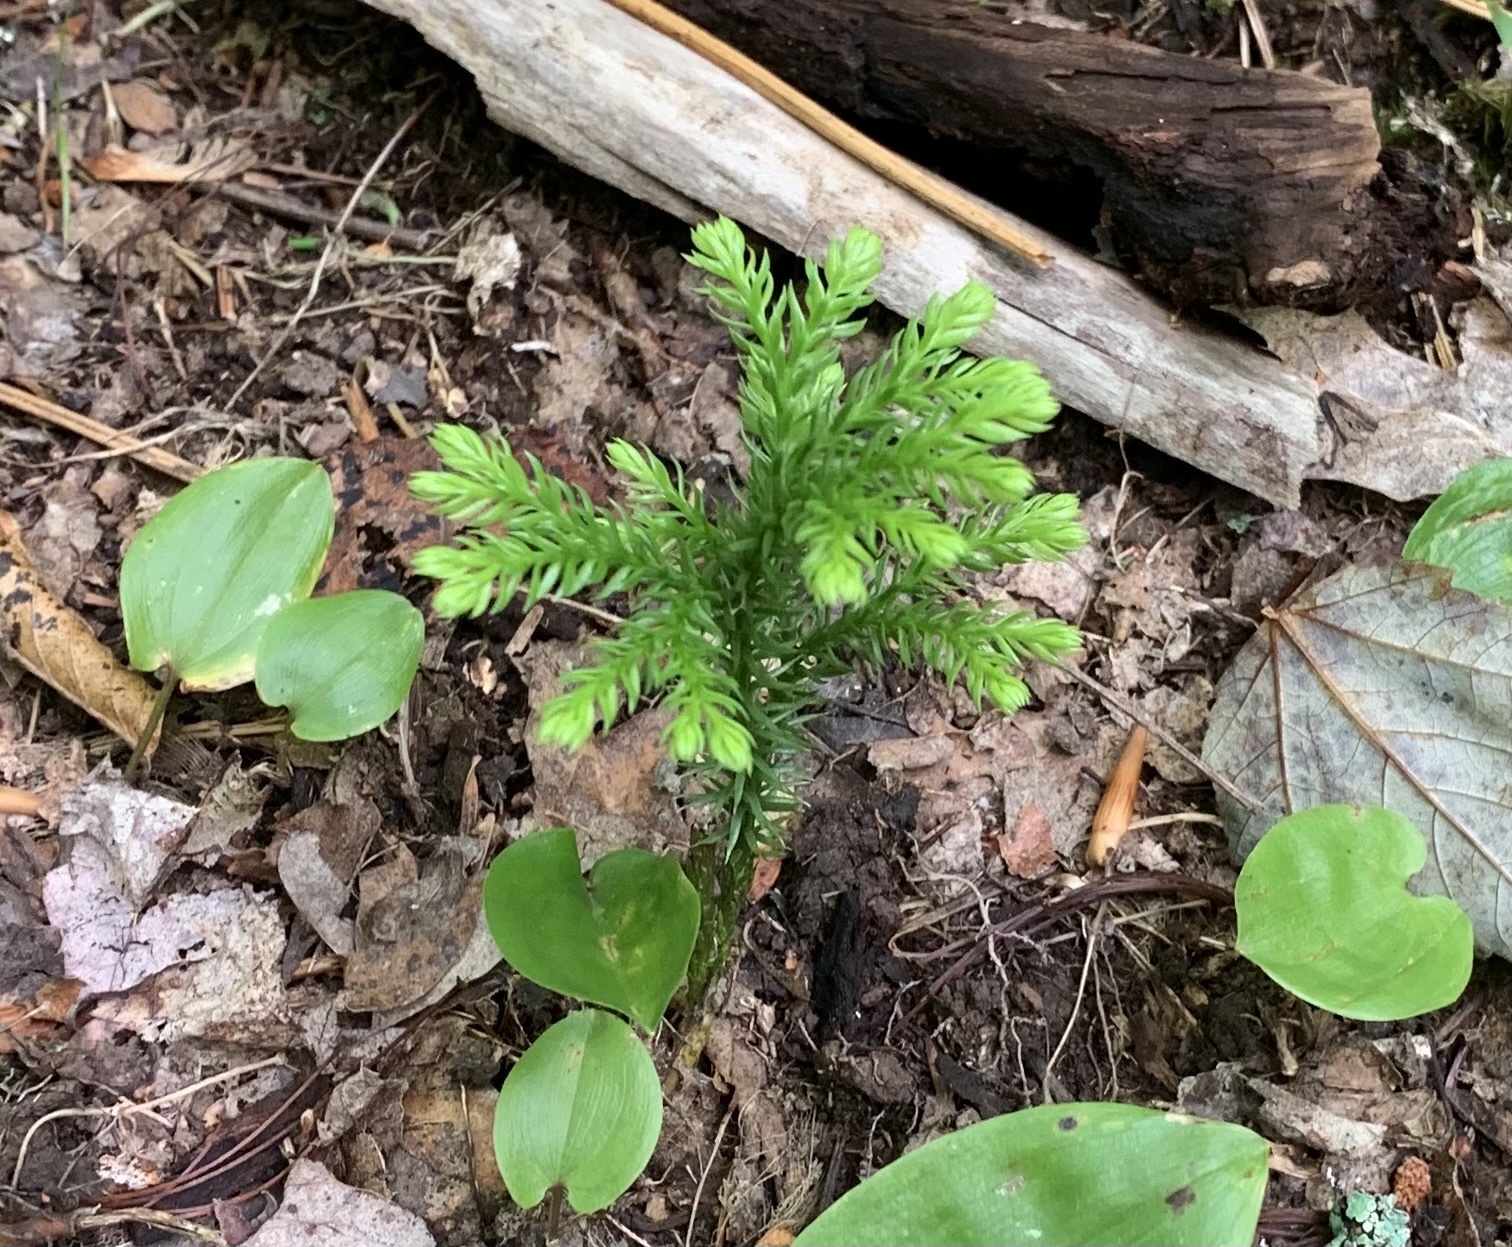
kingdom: Plantae
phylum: Tracheophyta
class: Lycopodiopsida
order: Lycopodiales
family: Lycopodiaceae
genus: Dendrolycopodium
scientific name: Dendrolycopodium dendroideum
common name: Northern tree-clubmoss
